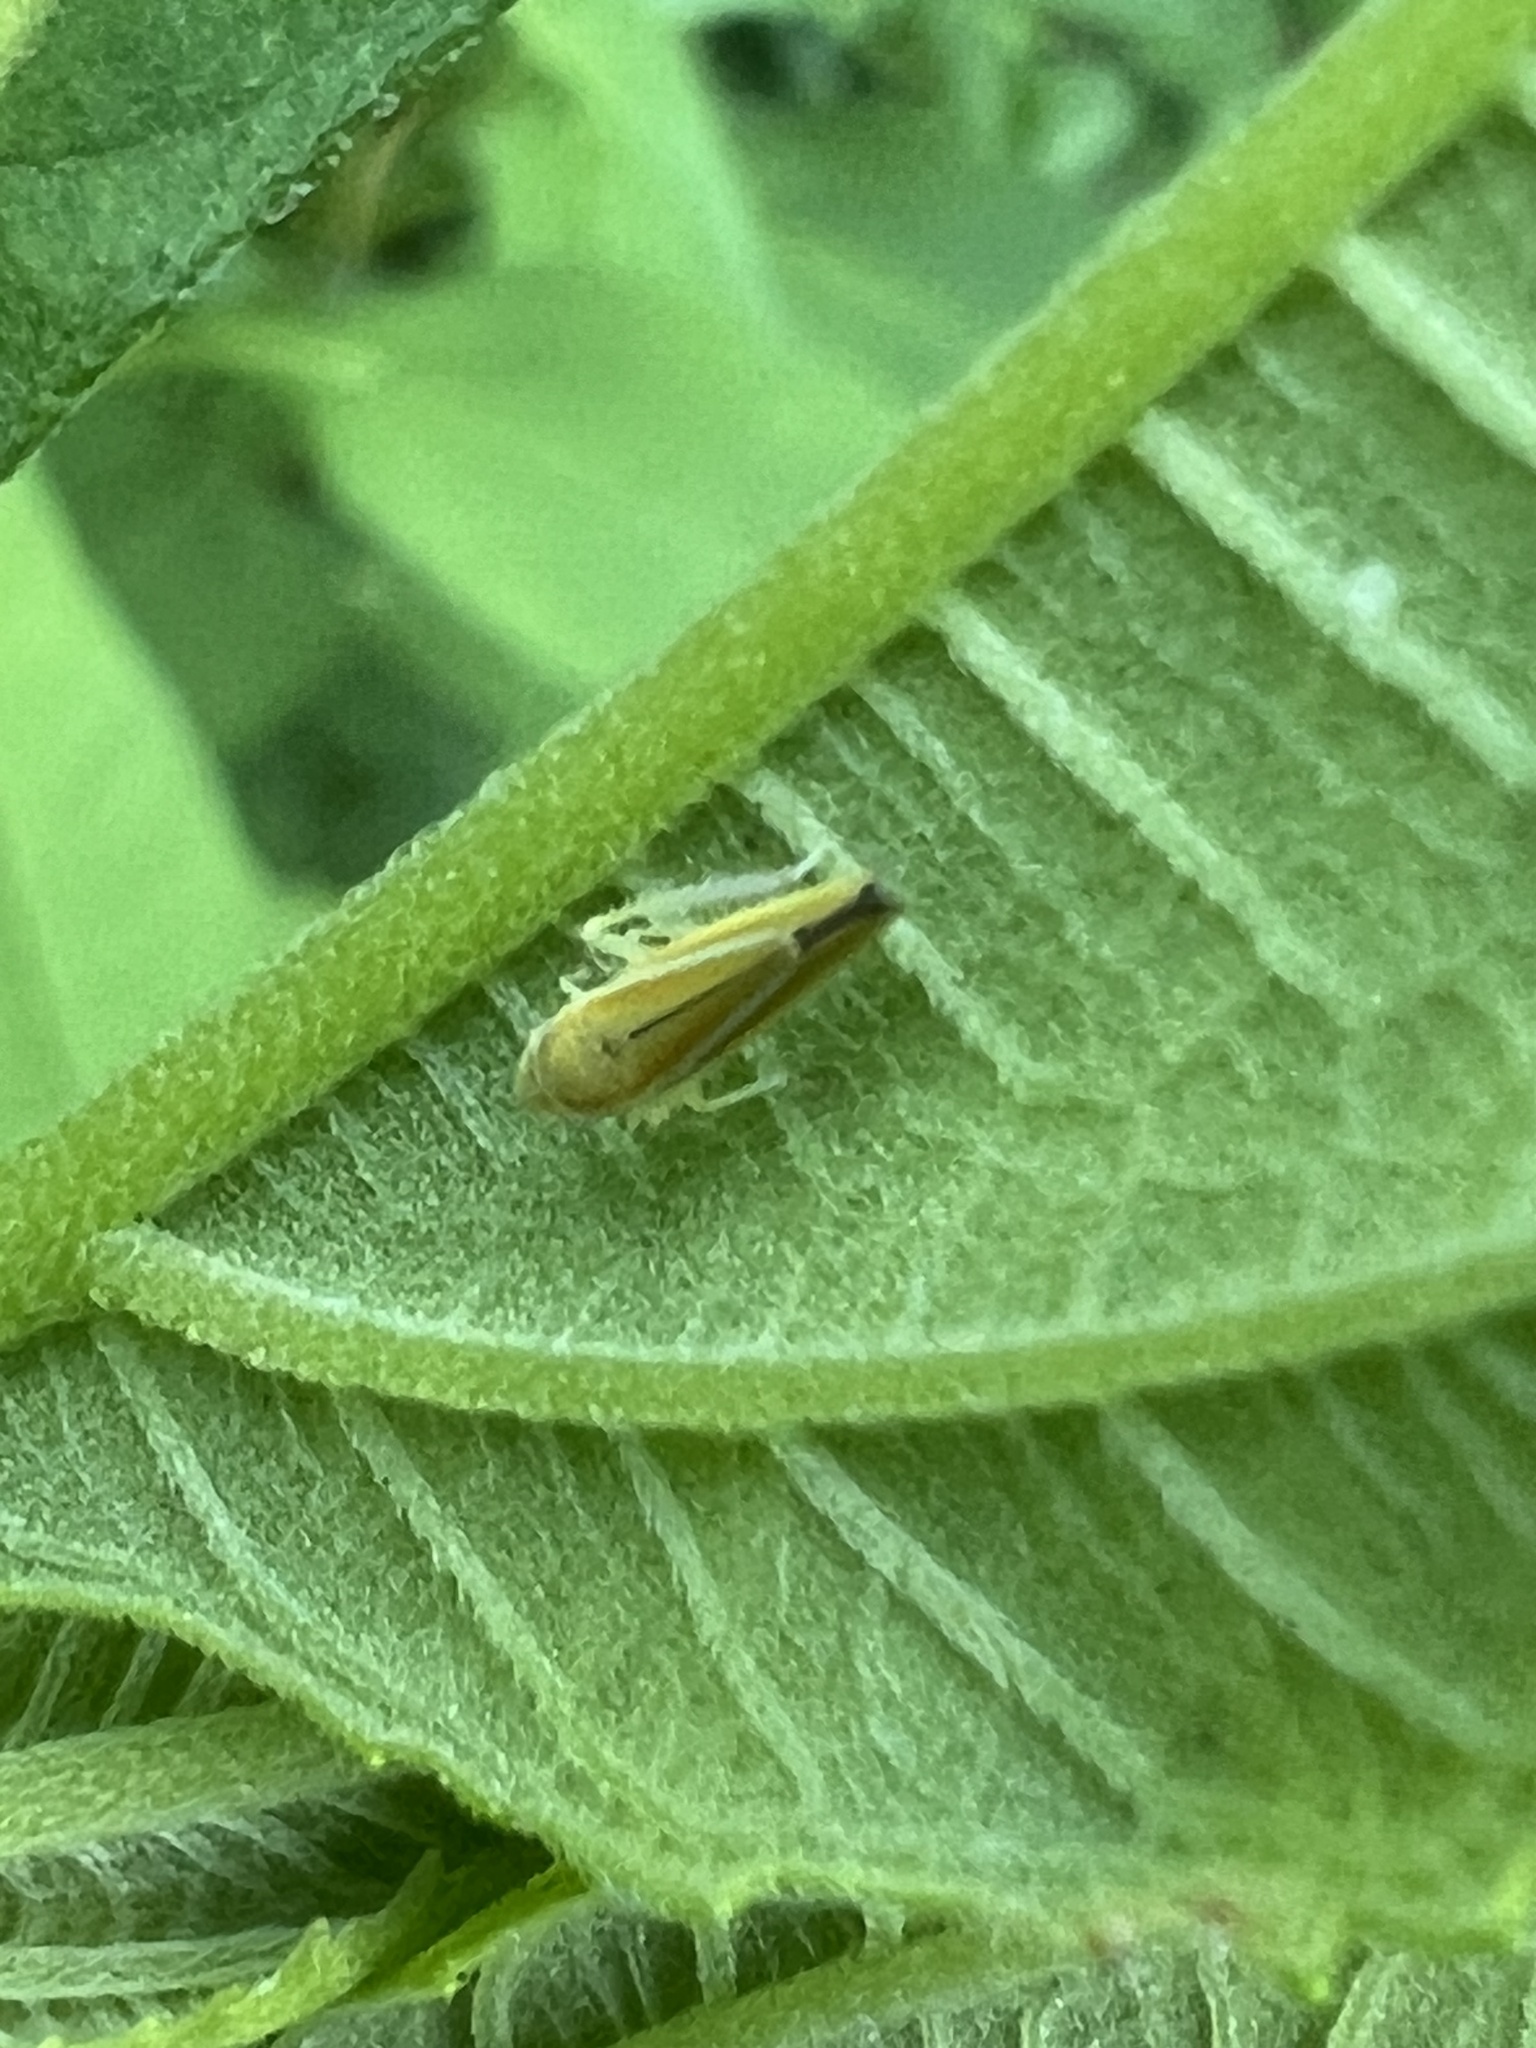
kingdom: Animalia
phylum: Arthropoda
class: Insecta
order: Hemiptera
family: Cicadellidae
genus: Graphocephala
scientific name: Graphocephala versuta
